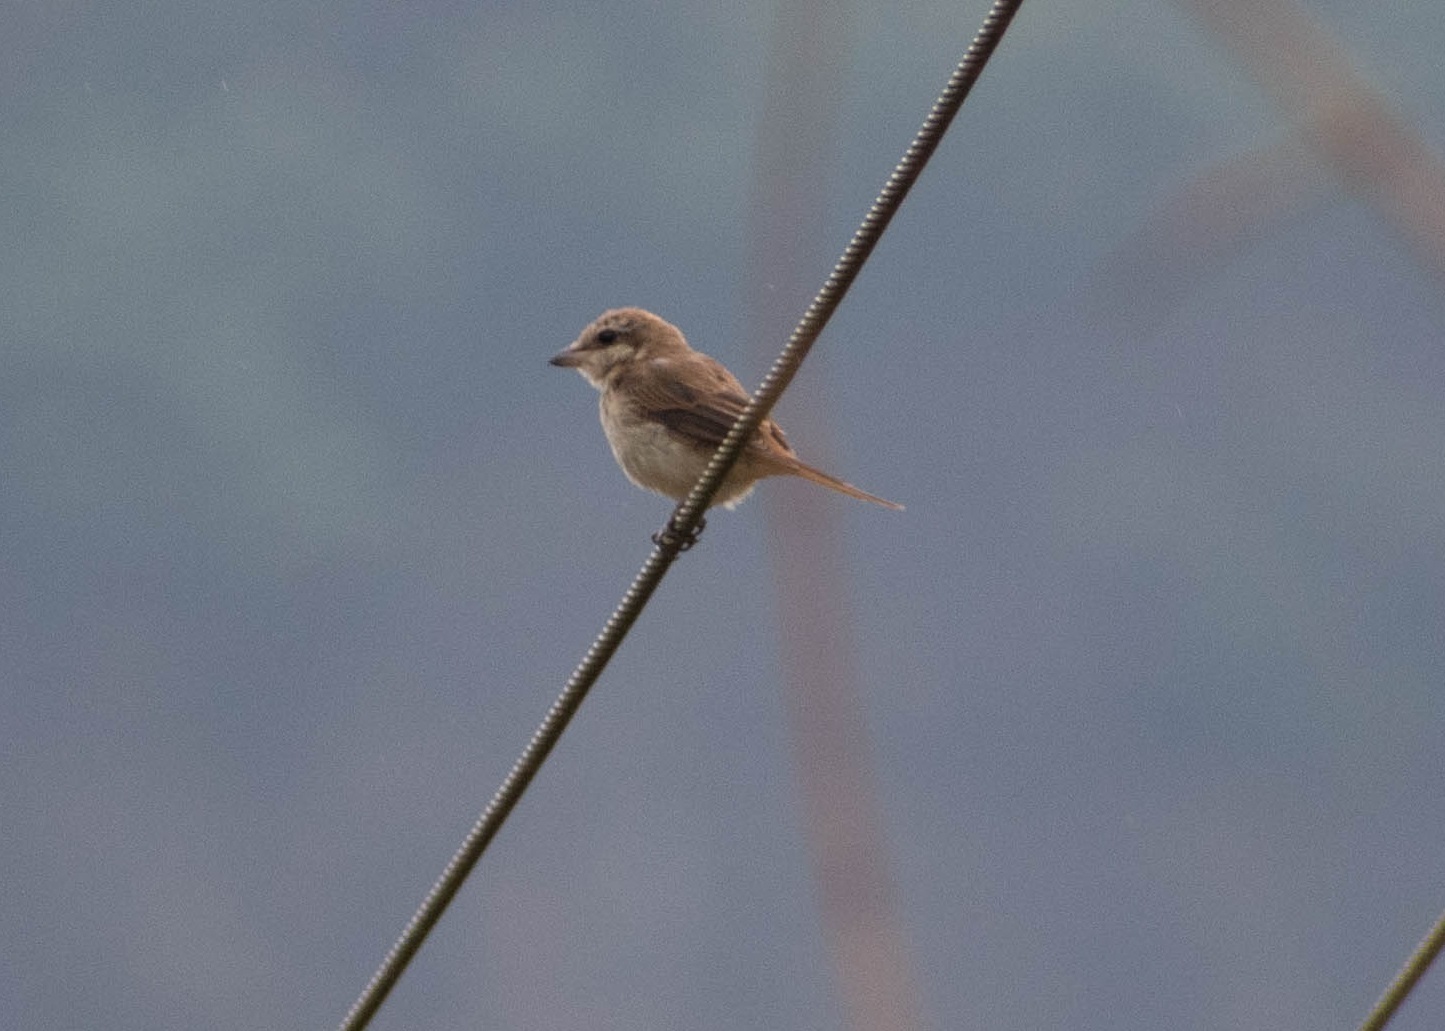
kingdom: Animalia
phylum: Chordata
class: Aves
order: Passeriformes
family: Laniidae
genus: Lanius
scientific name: Lanius cristatus
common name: Brown shrike
